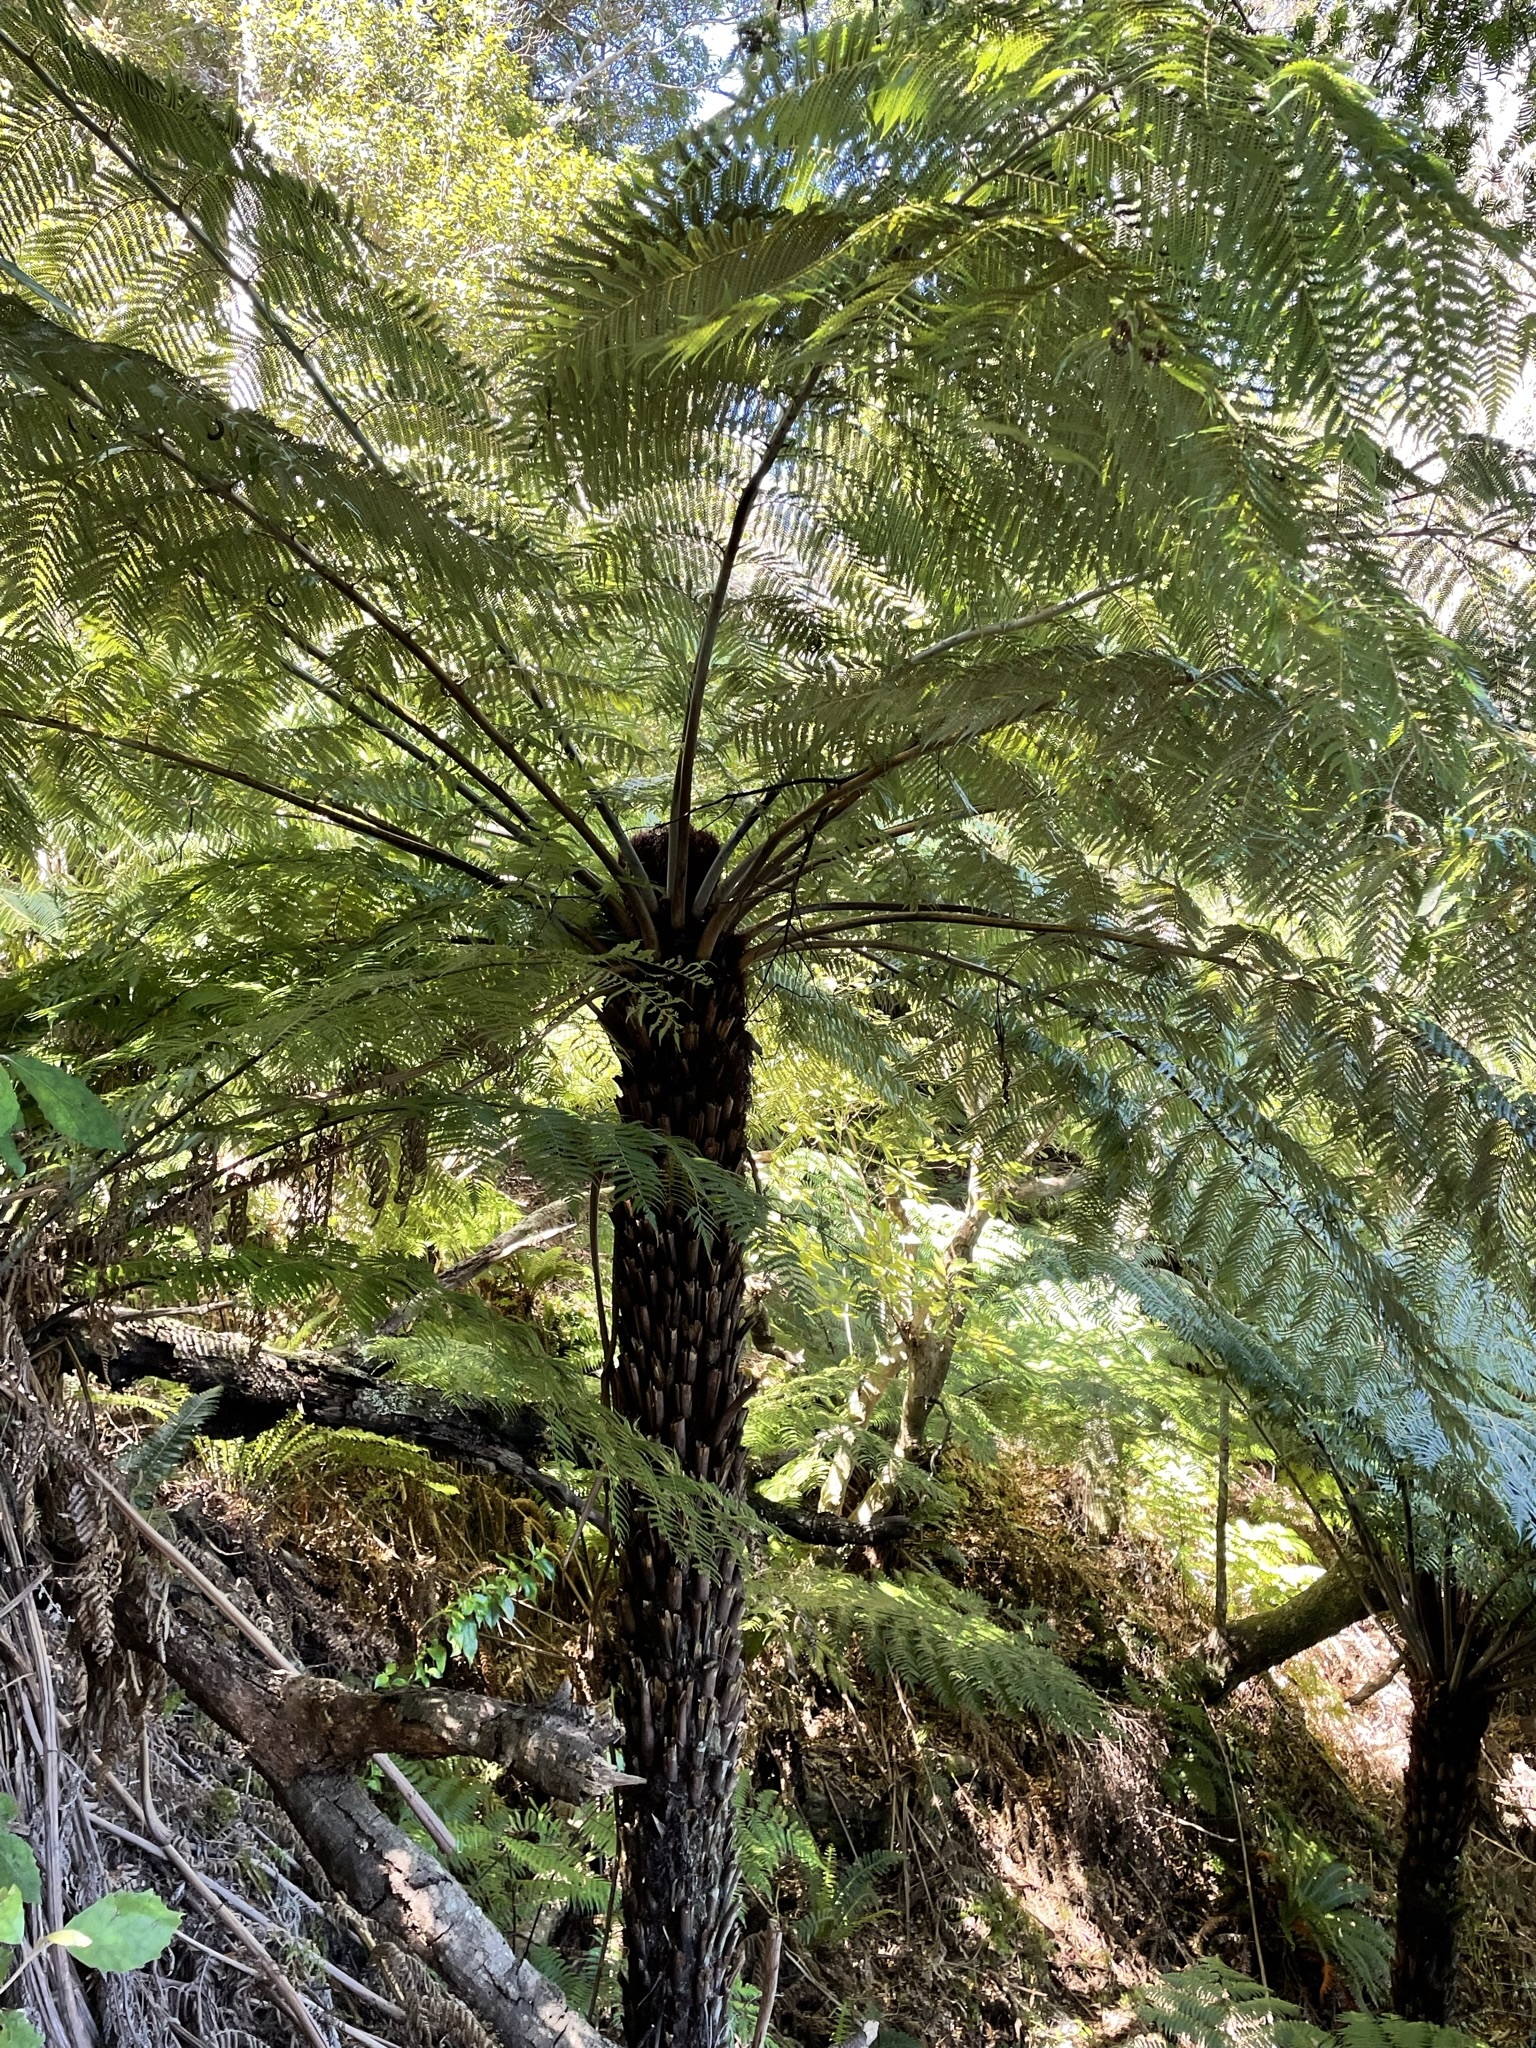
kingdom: Plantae
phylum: Tracheophyta
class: Polypodiopsida
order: Cyatheales
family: Cyatheaceae
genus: Alsophila
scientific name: Alsophila dealbata
